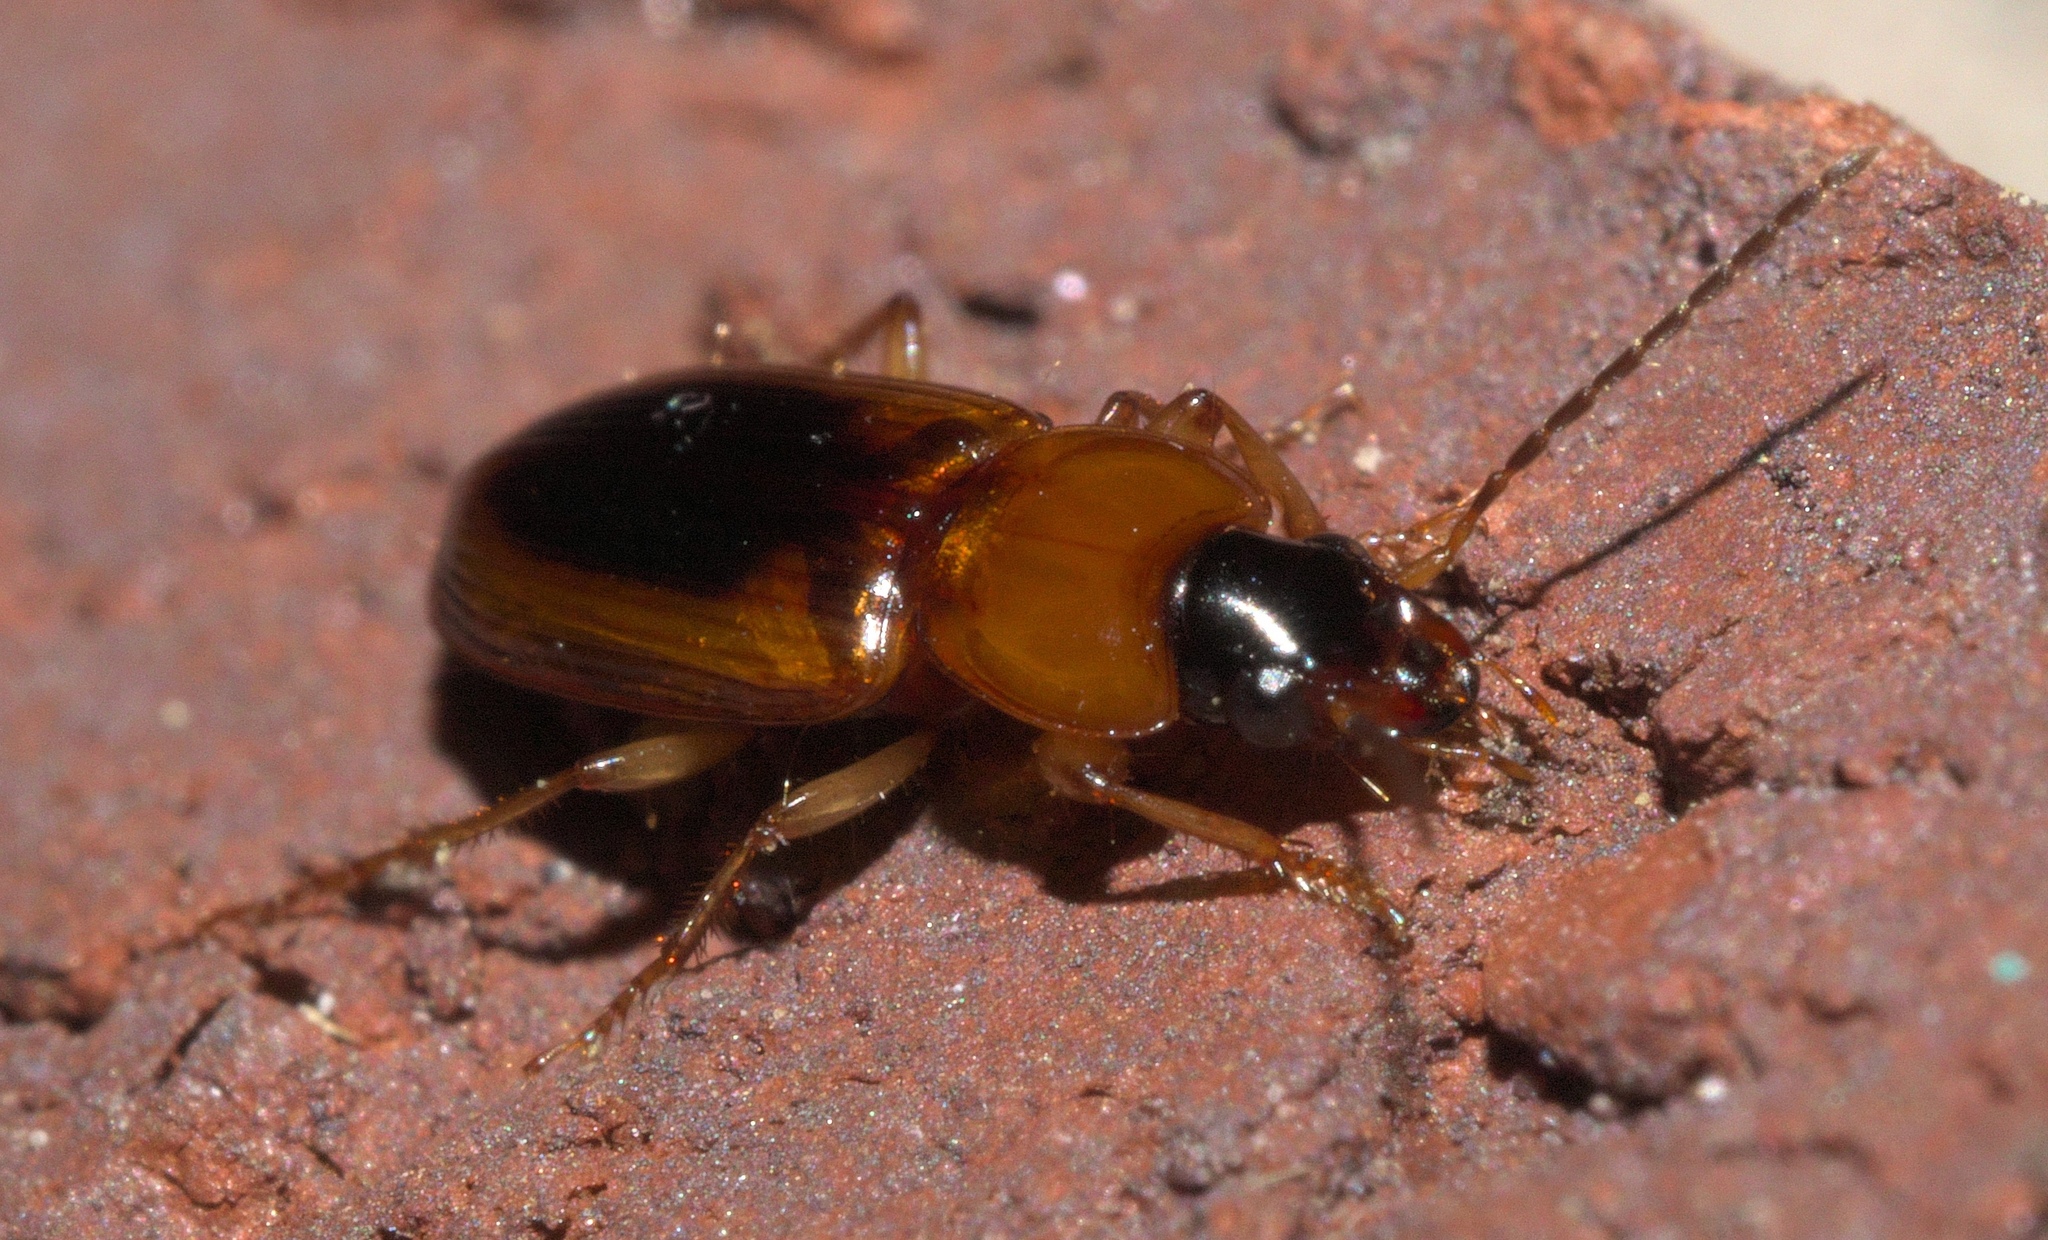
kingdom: Animalia
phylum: Arthropoda
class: Insecta
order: Coleoptera
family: Carabidae
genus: Stenolophus
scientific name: Stenolophus dissimilis
